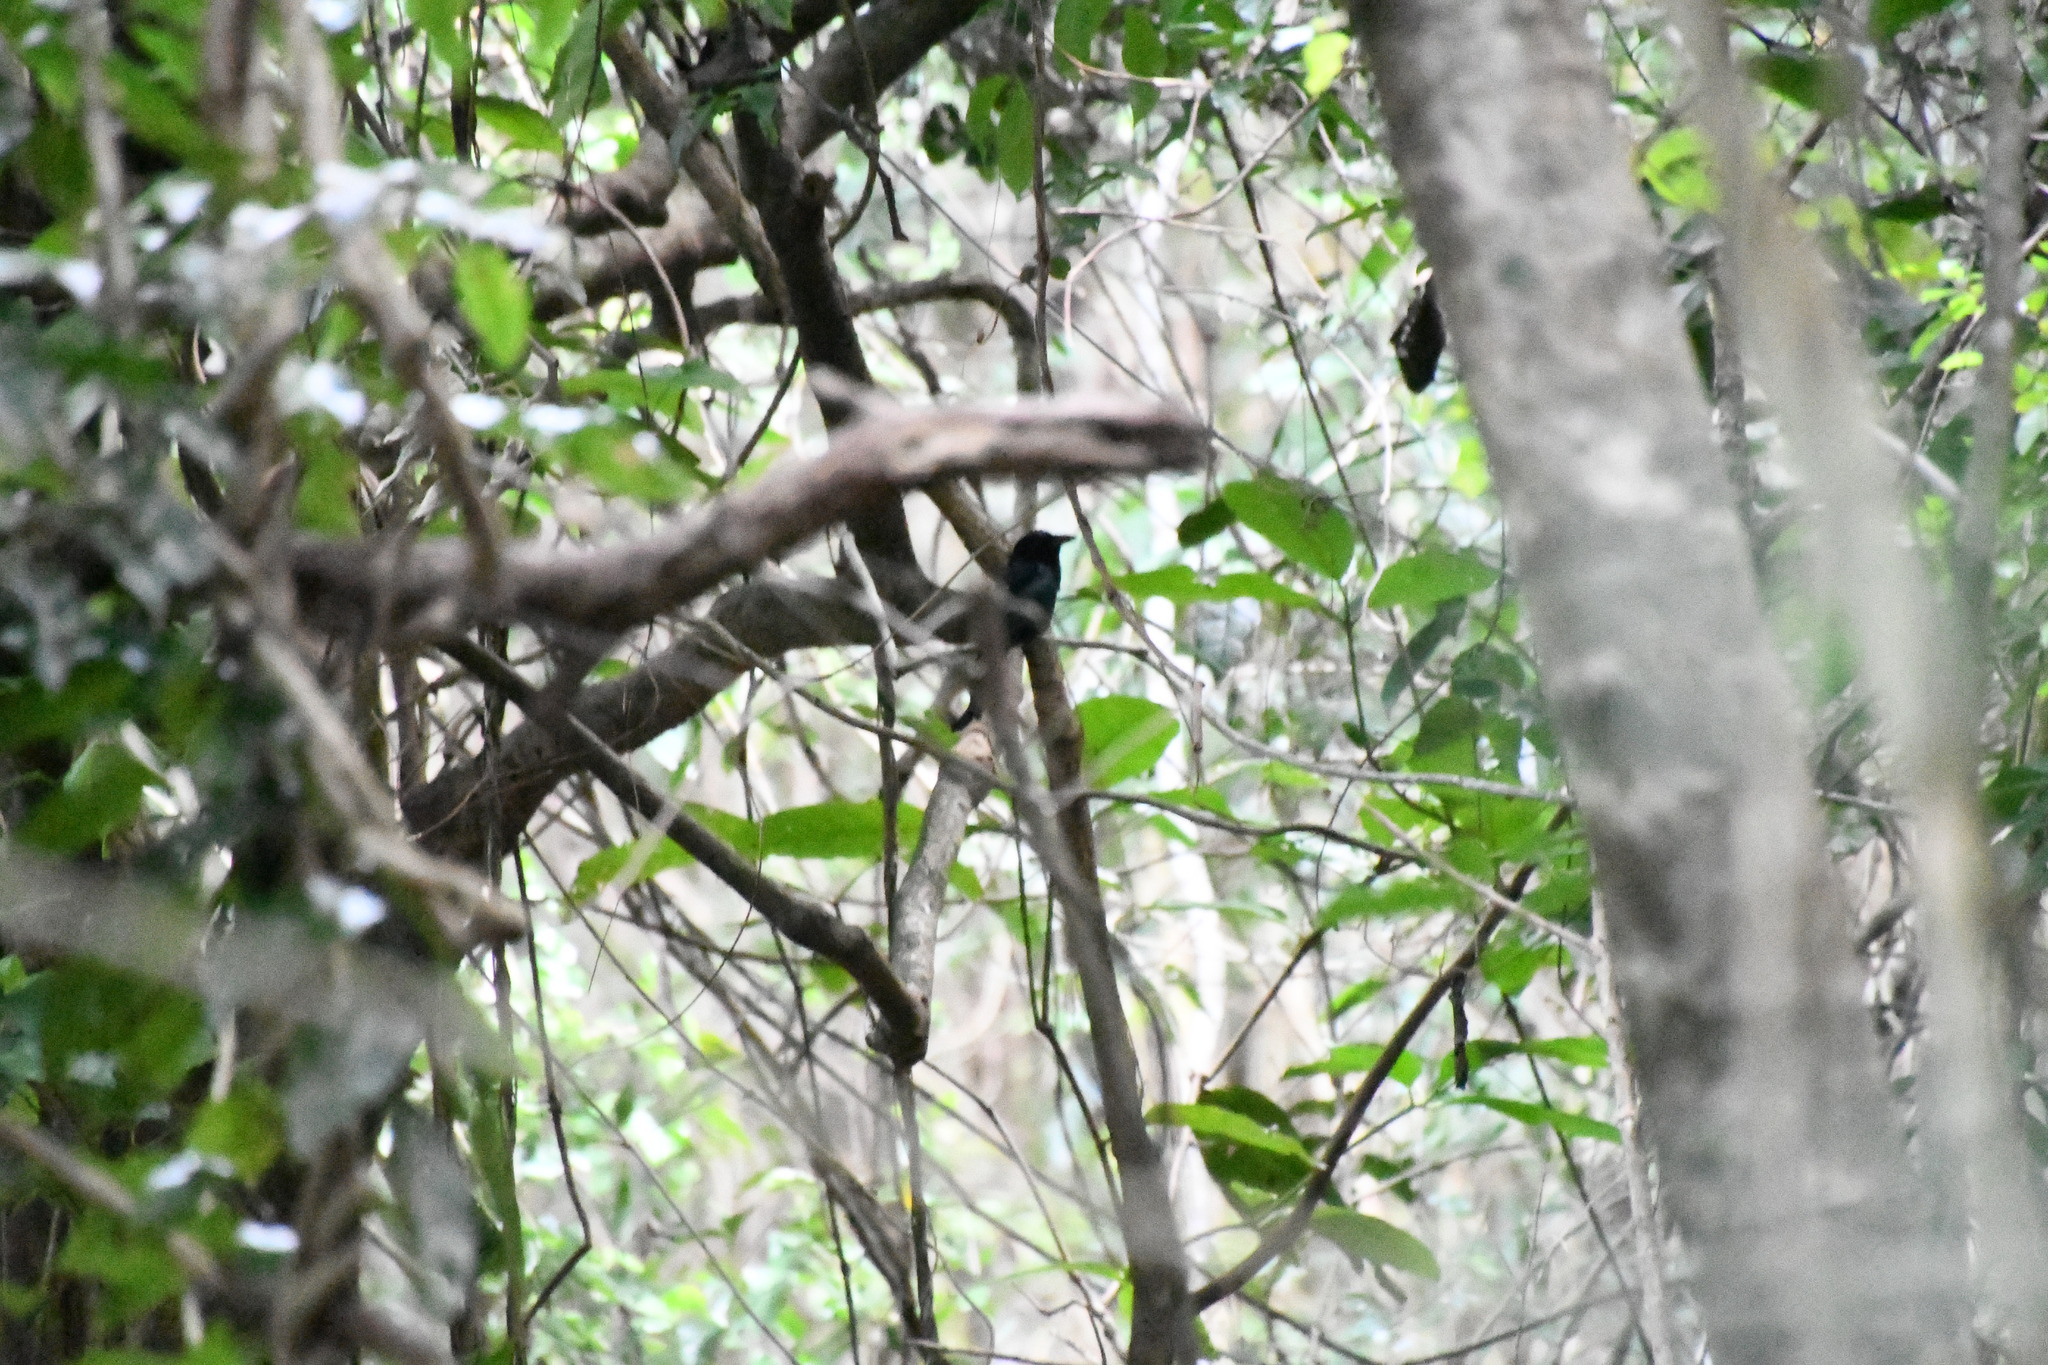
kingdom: Animalia
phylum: Chordata
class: Aves
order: Passeriformes
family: Dicruridae
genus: Dicrurus
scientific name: Dicrurus bracteatus
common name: Spangled drongo
